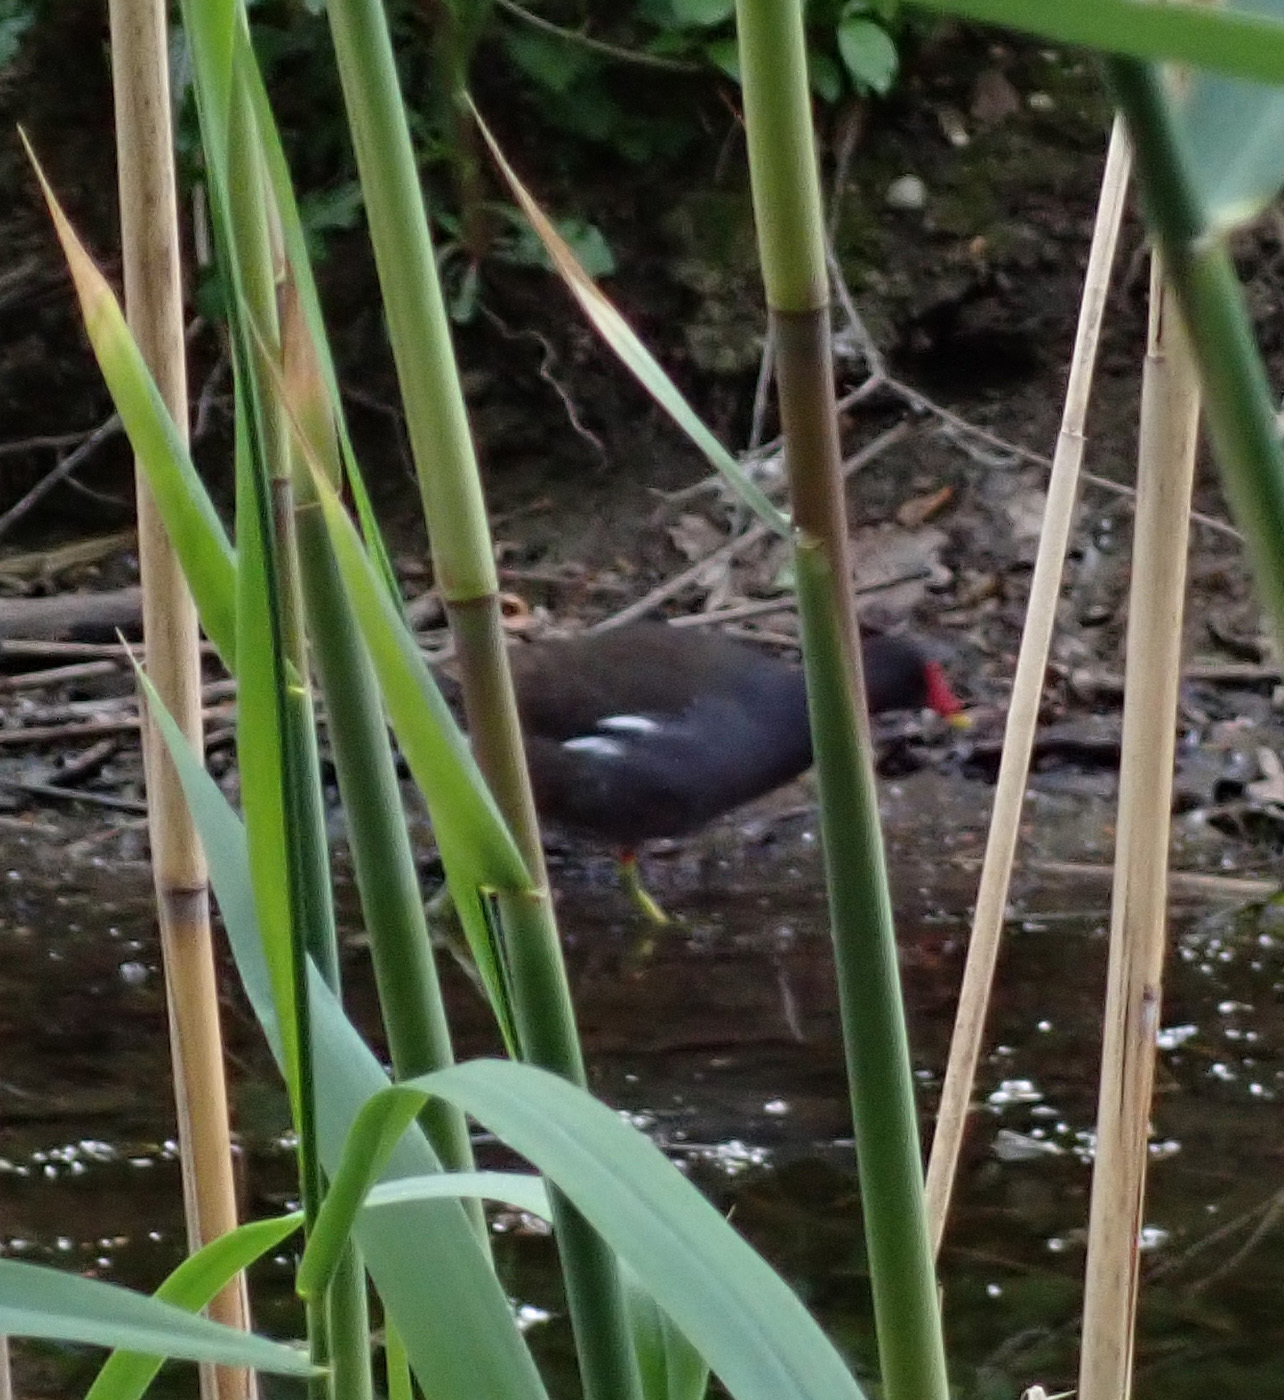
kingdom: Animalia
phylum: Chordata
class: Aves
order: Gruiformes
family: Rallidae
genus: Gallinula
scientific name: Gallinula chloropus
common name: Common moorhen
